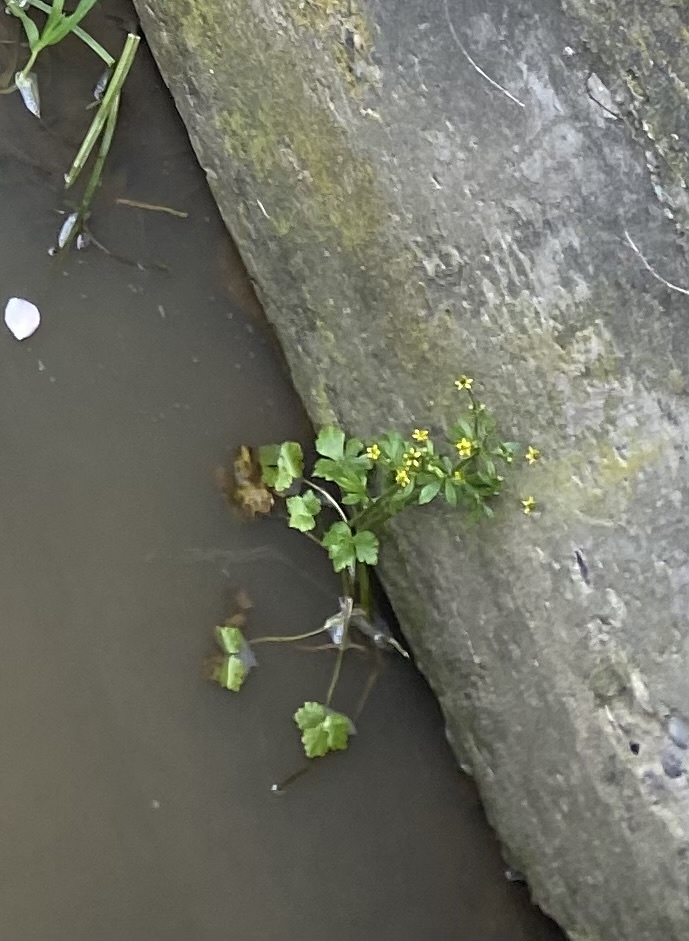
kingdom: Plantae
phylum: Tracheophyta
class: Magnoliopsida
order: Ranunculales
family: Ranunculaceae
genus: Ranunculus
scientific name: Ranunculus sceleratus
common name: Celery-leaved buttercup
